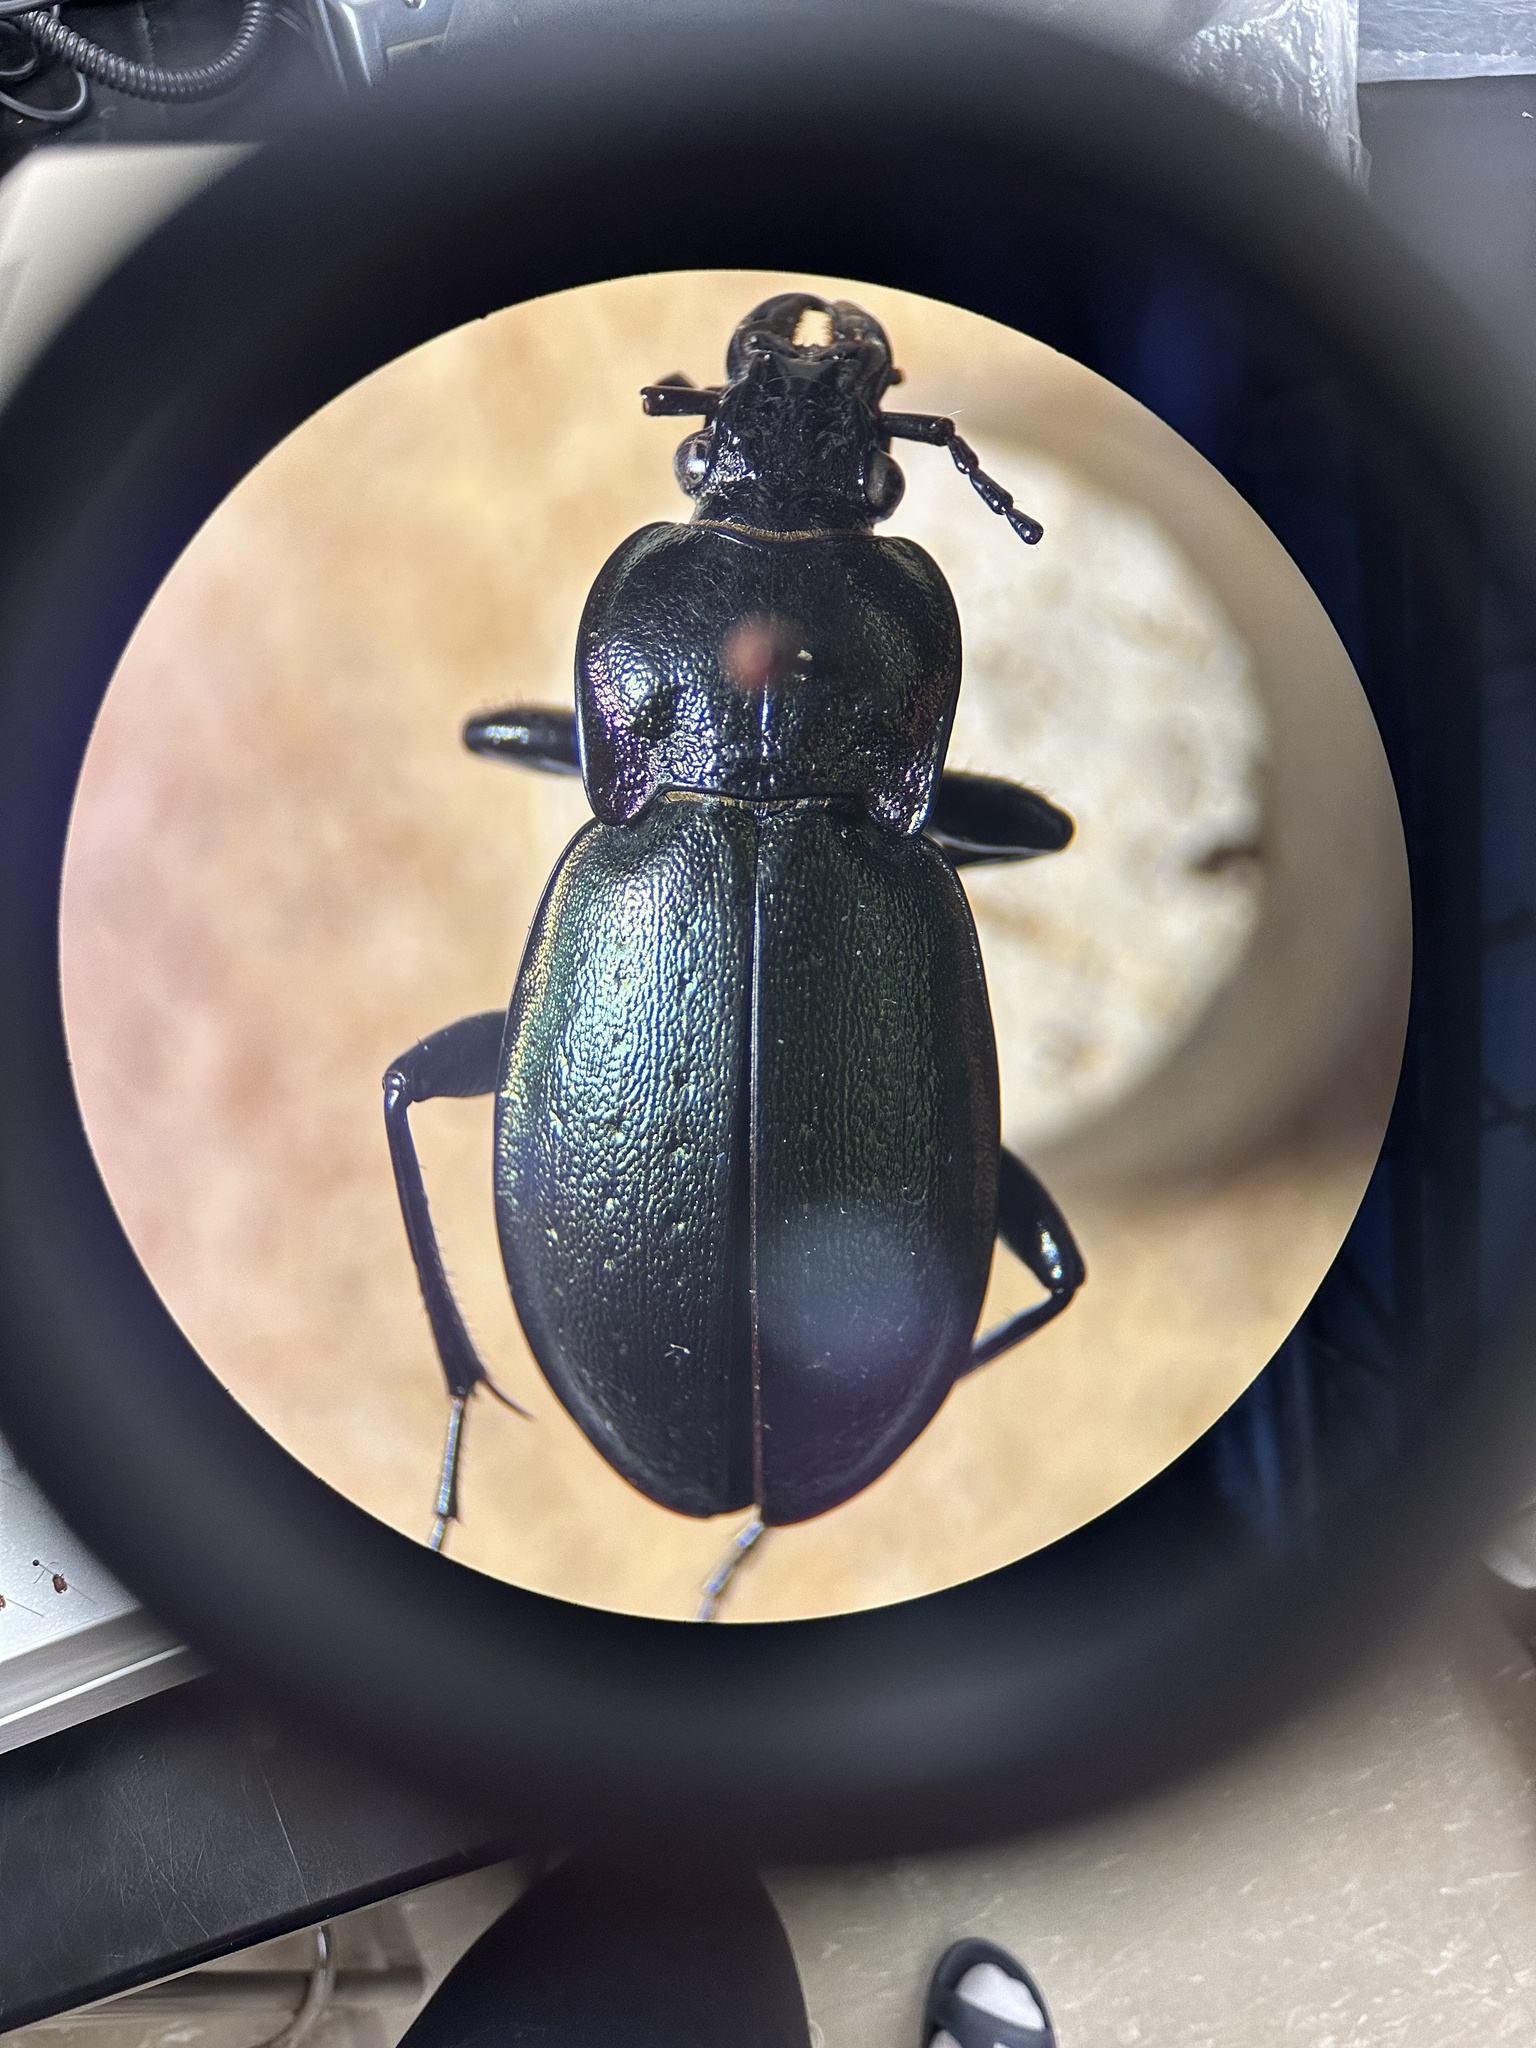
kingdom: Animalia
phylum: Arthropoda
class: Insecta
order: Coleoptera
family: Carabidae
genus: Carabus
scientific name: Carabus nemoralis
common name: European ground beetle
